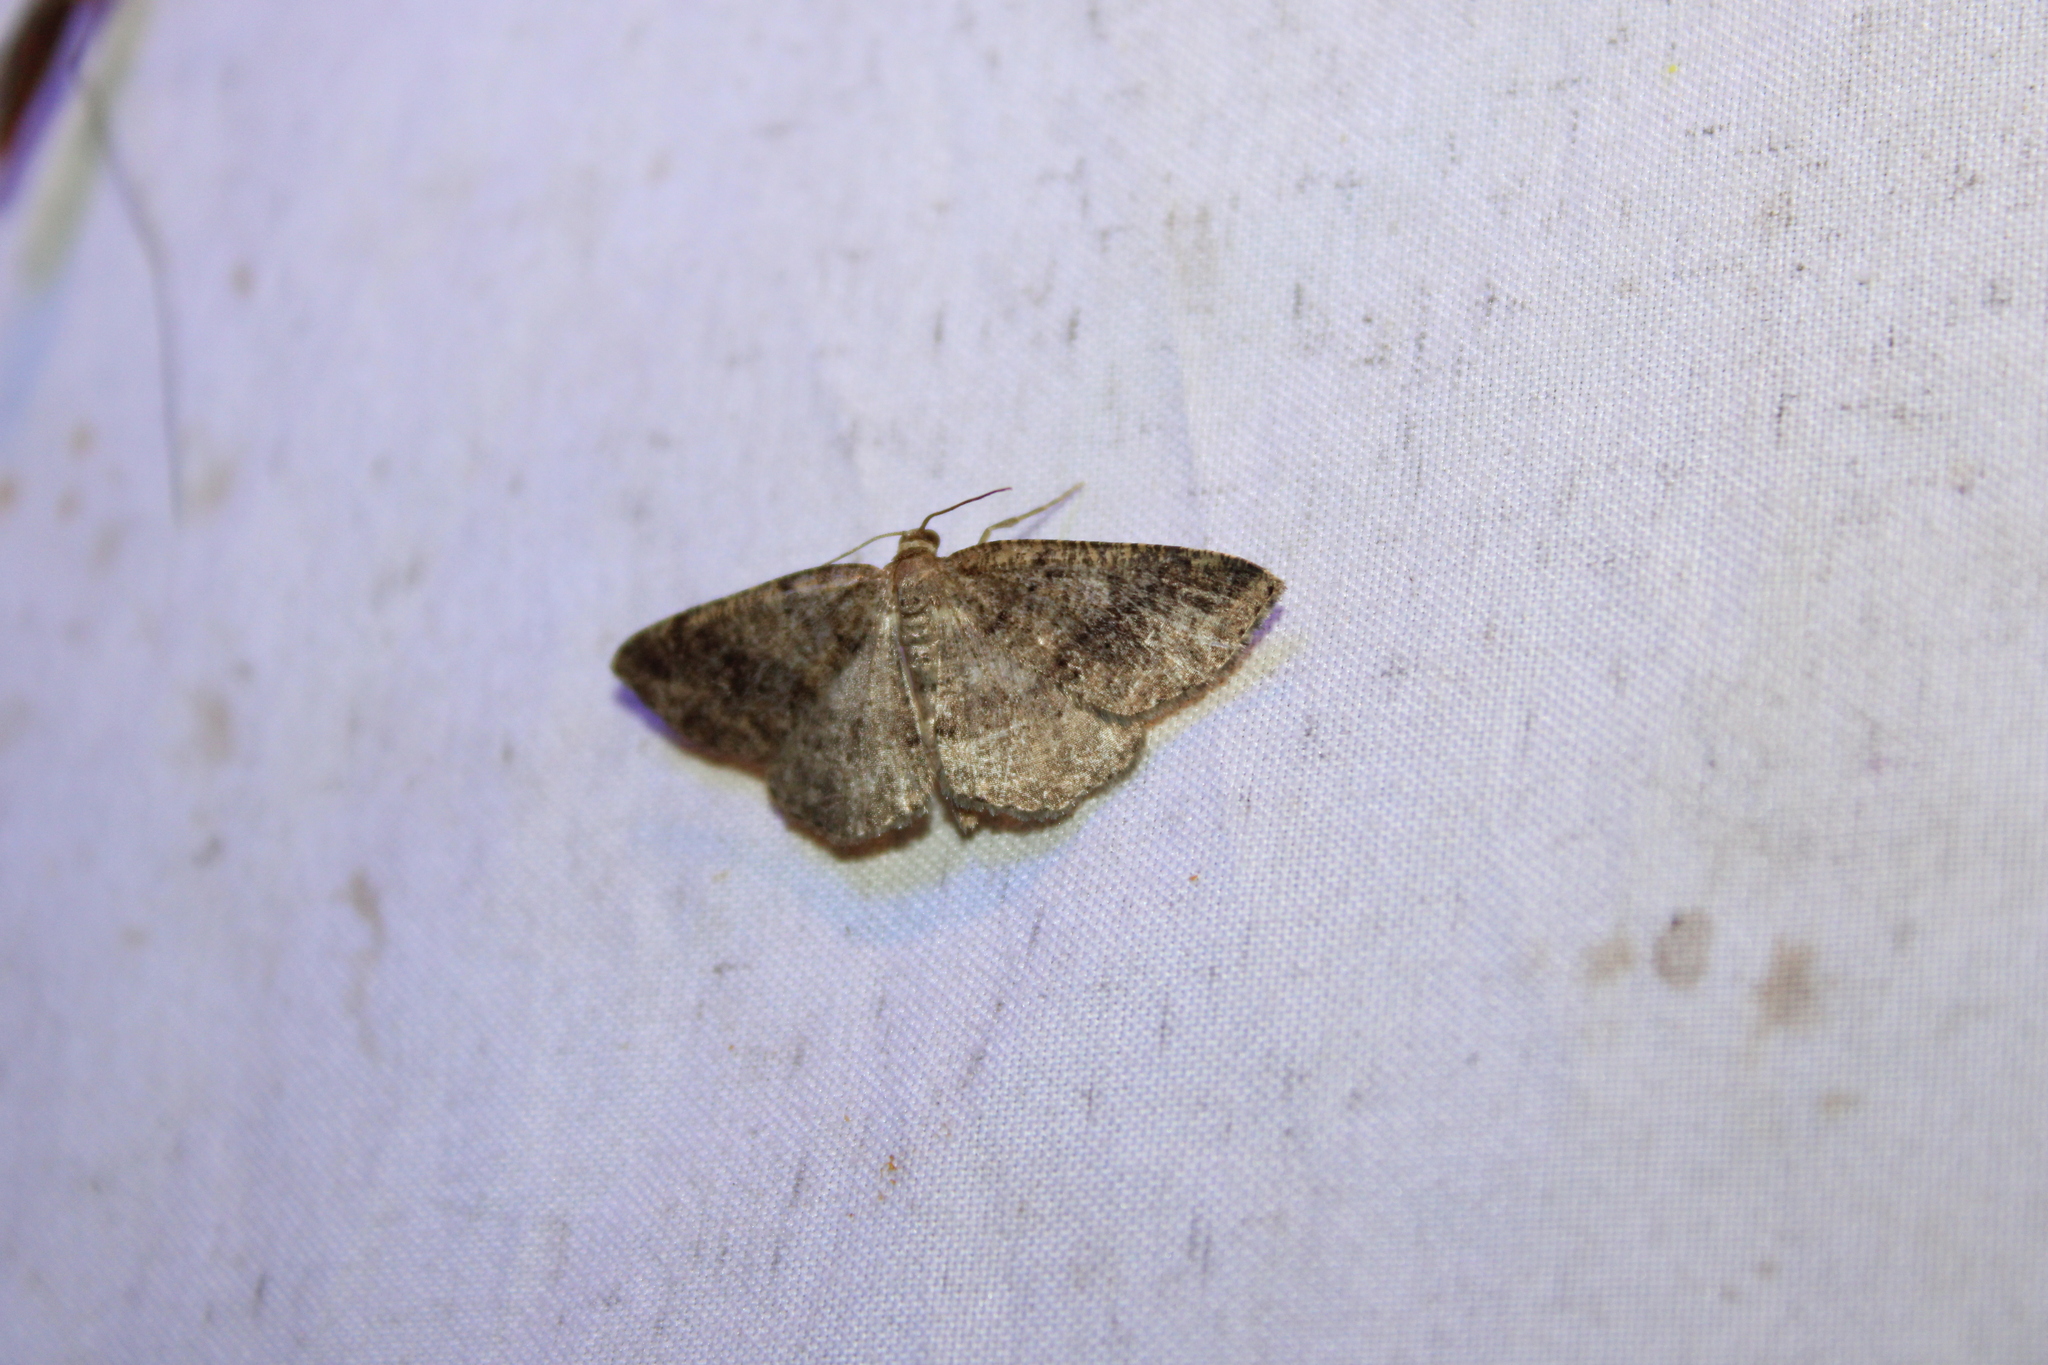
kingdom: Animalia
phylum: Arthropoda
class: Insecta
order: Lepidoptera
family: Geometridae
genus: Homochlodes
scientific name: Homochlodes fritillaria
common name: Pale homochlodes
